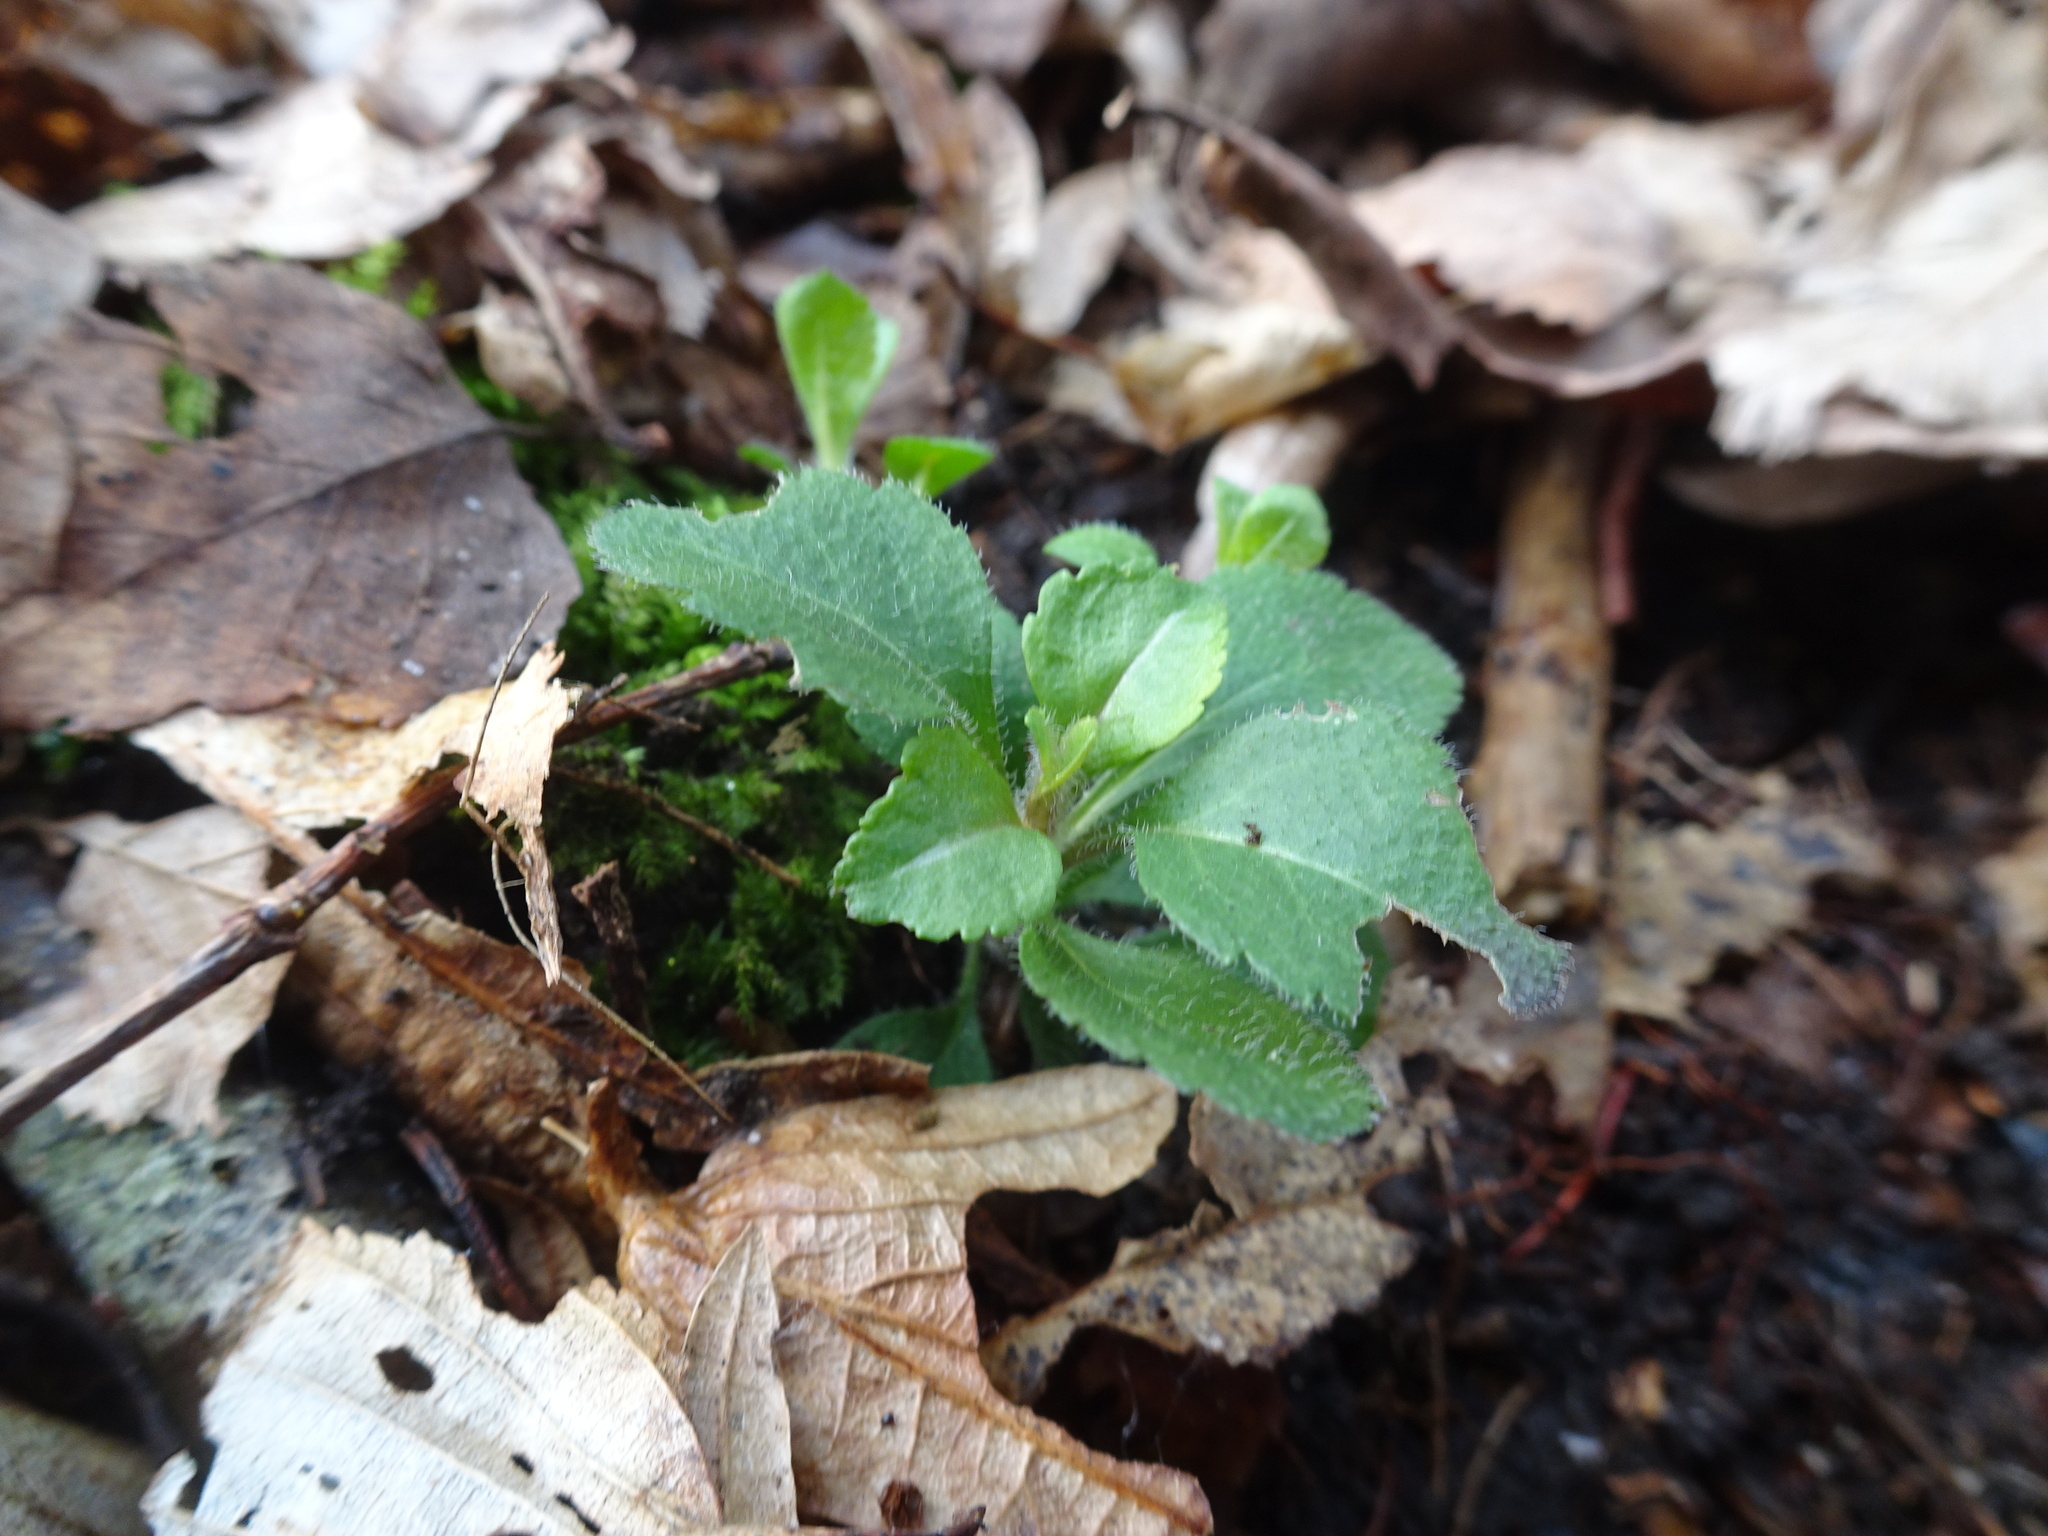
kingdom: Plantae
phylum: Tracheophyta
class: Magnoliopsida
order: Lamiales
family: Plantaginaceae
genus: Veronica
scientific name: Veronica officinalis
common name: Common speedwell
